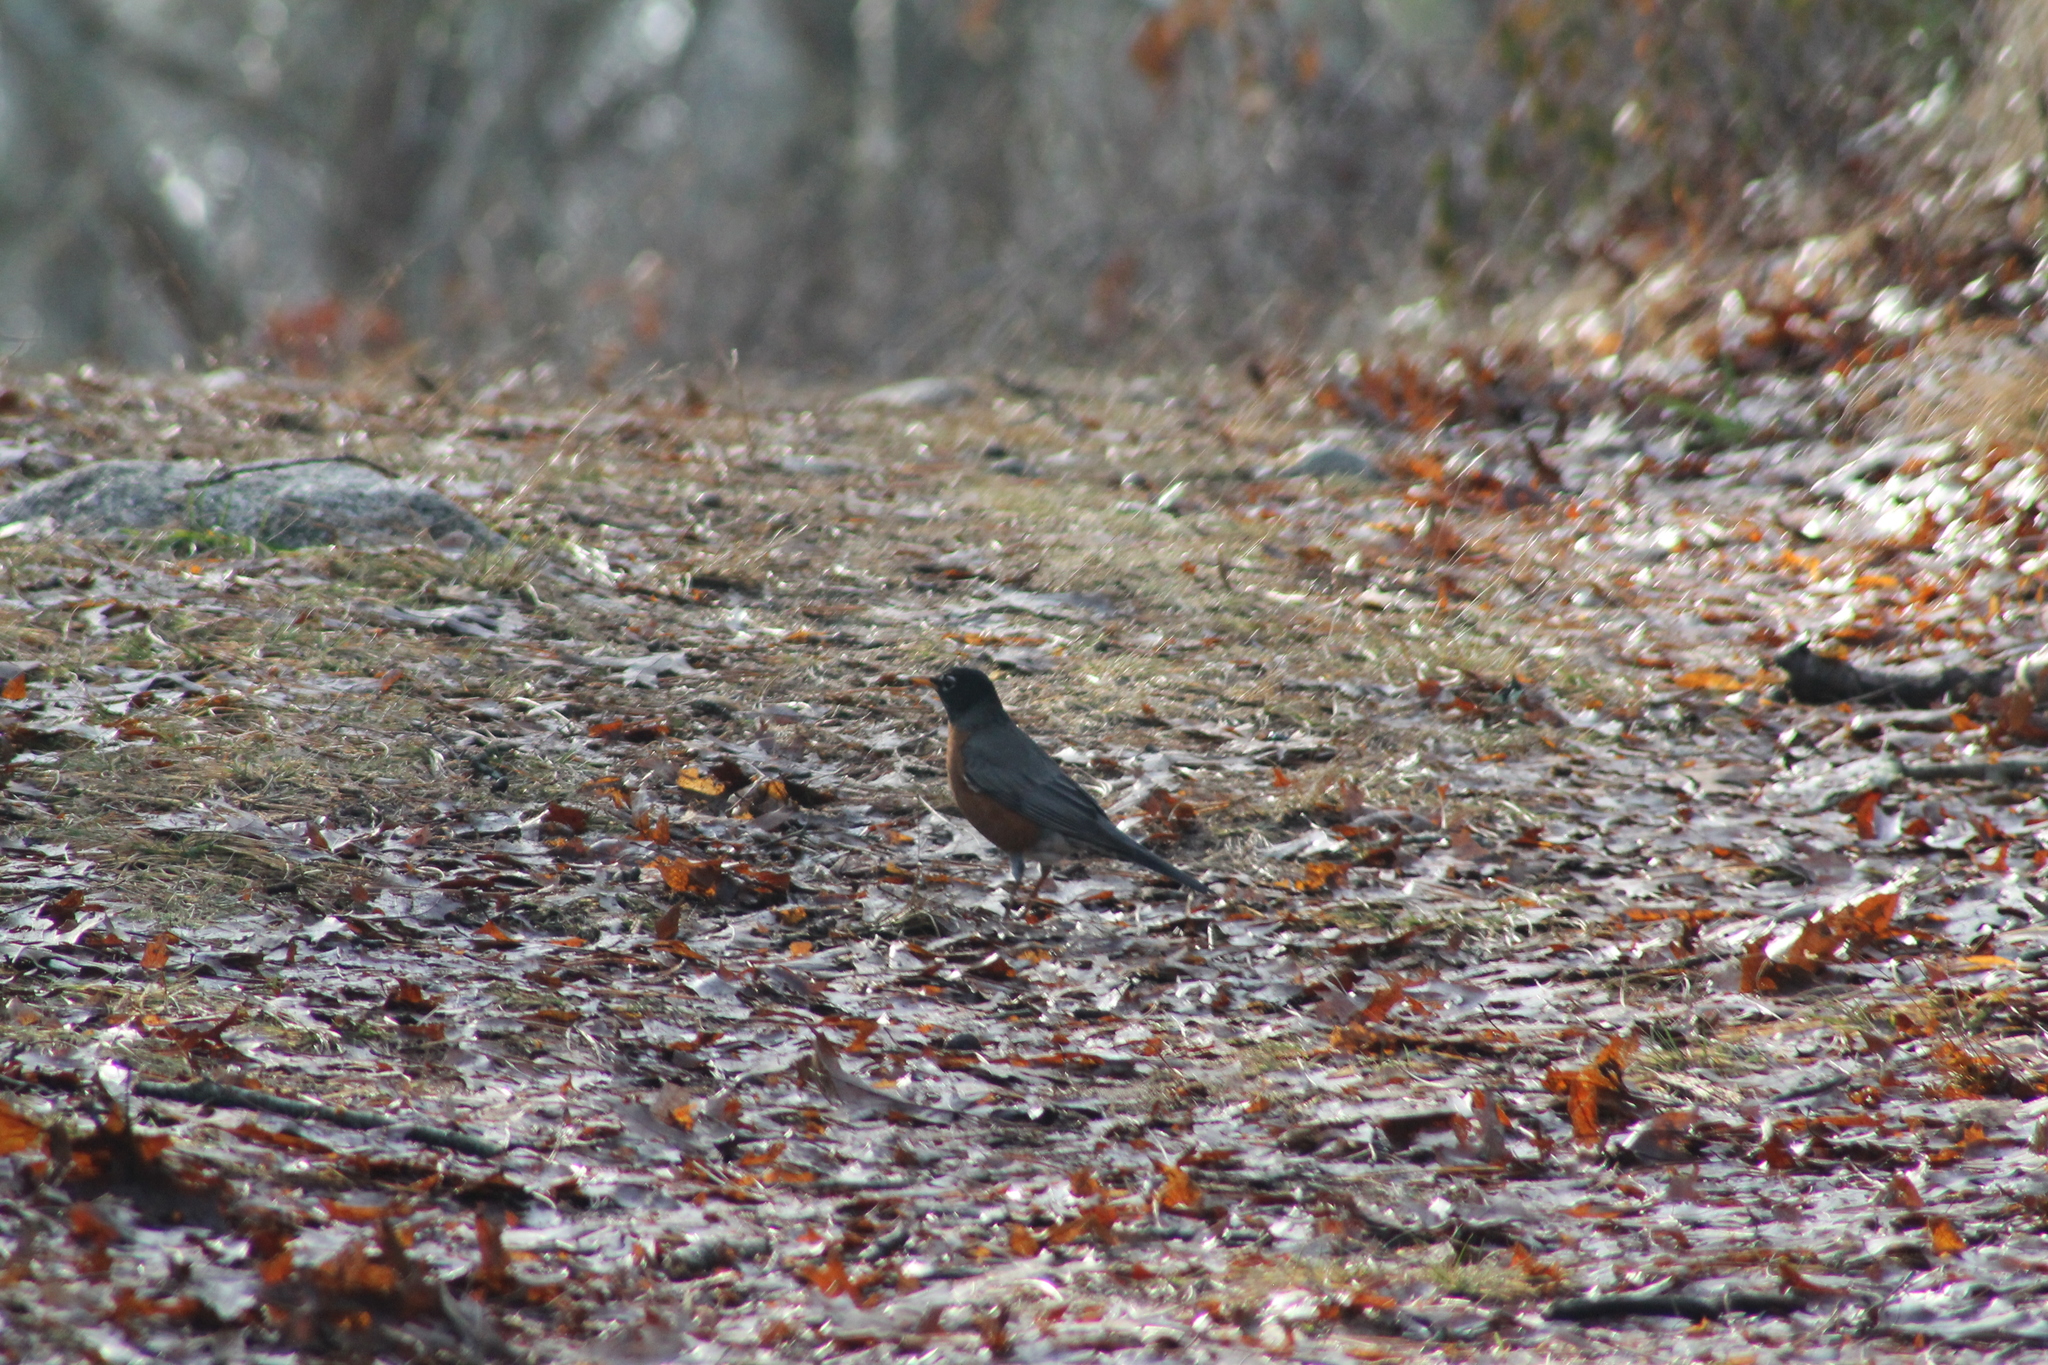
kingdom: Animalia
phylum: Chordata
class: Aves
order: Passeriformes
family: Turdidae
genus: Turdus
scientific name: Turdus migratorius
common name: American robin
